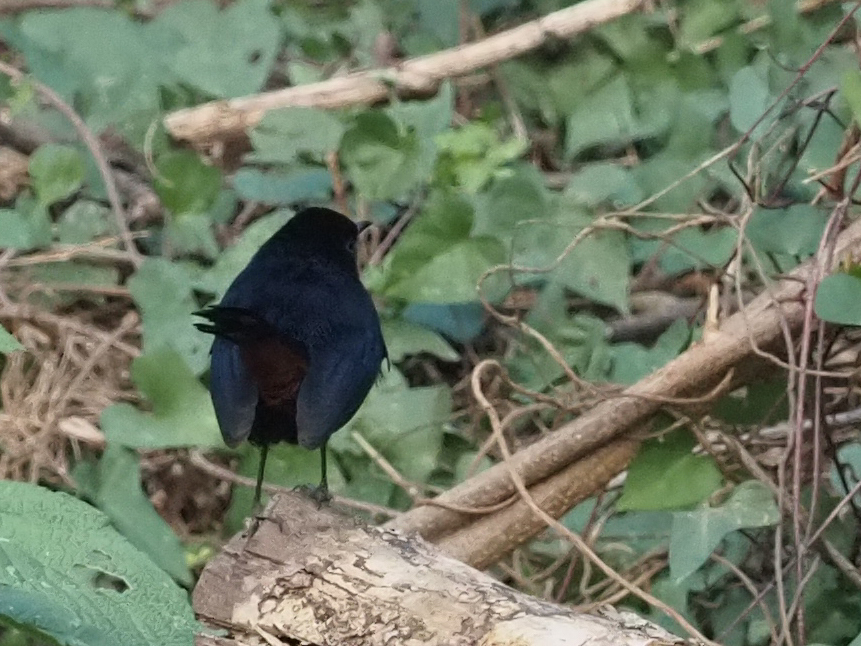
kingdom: Animalia
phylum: Chordata
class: Aves
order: Passeriformes
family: Muscicapidae
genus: Saxicoloides
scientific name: Saxicoloides fulicatus
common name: Indian robin
